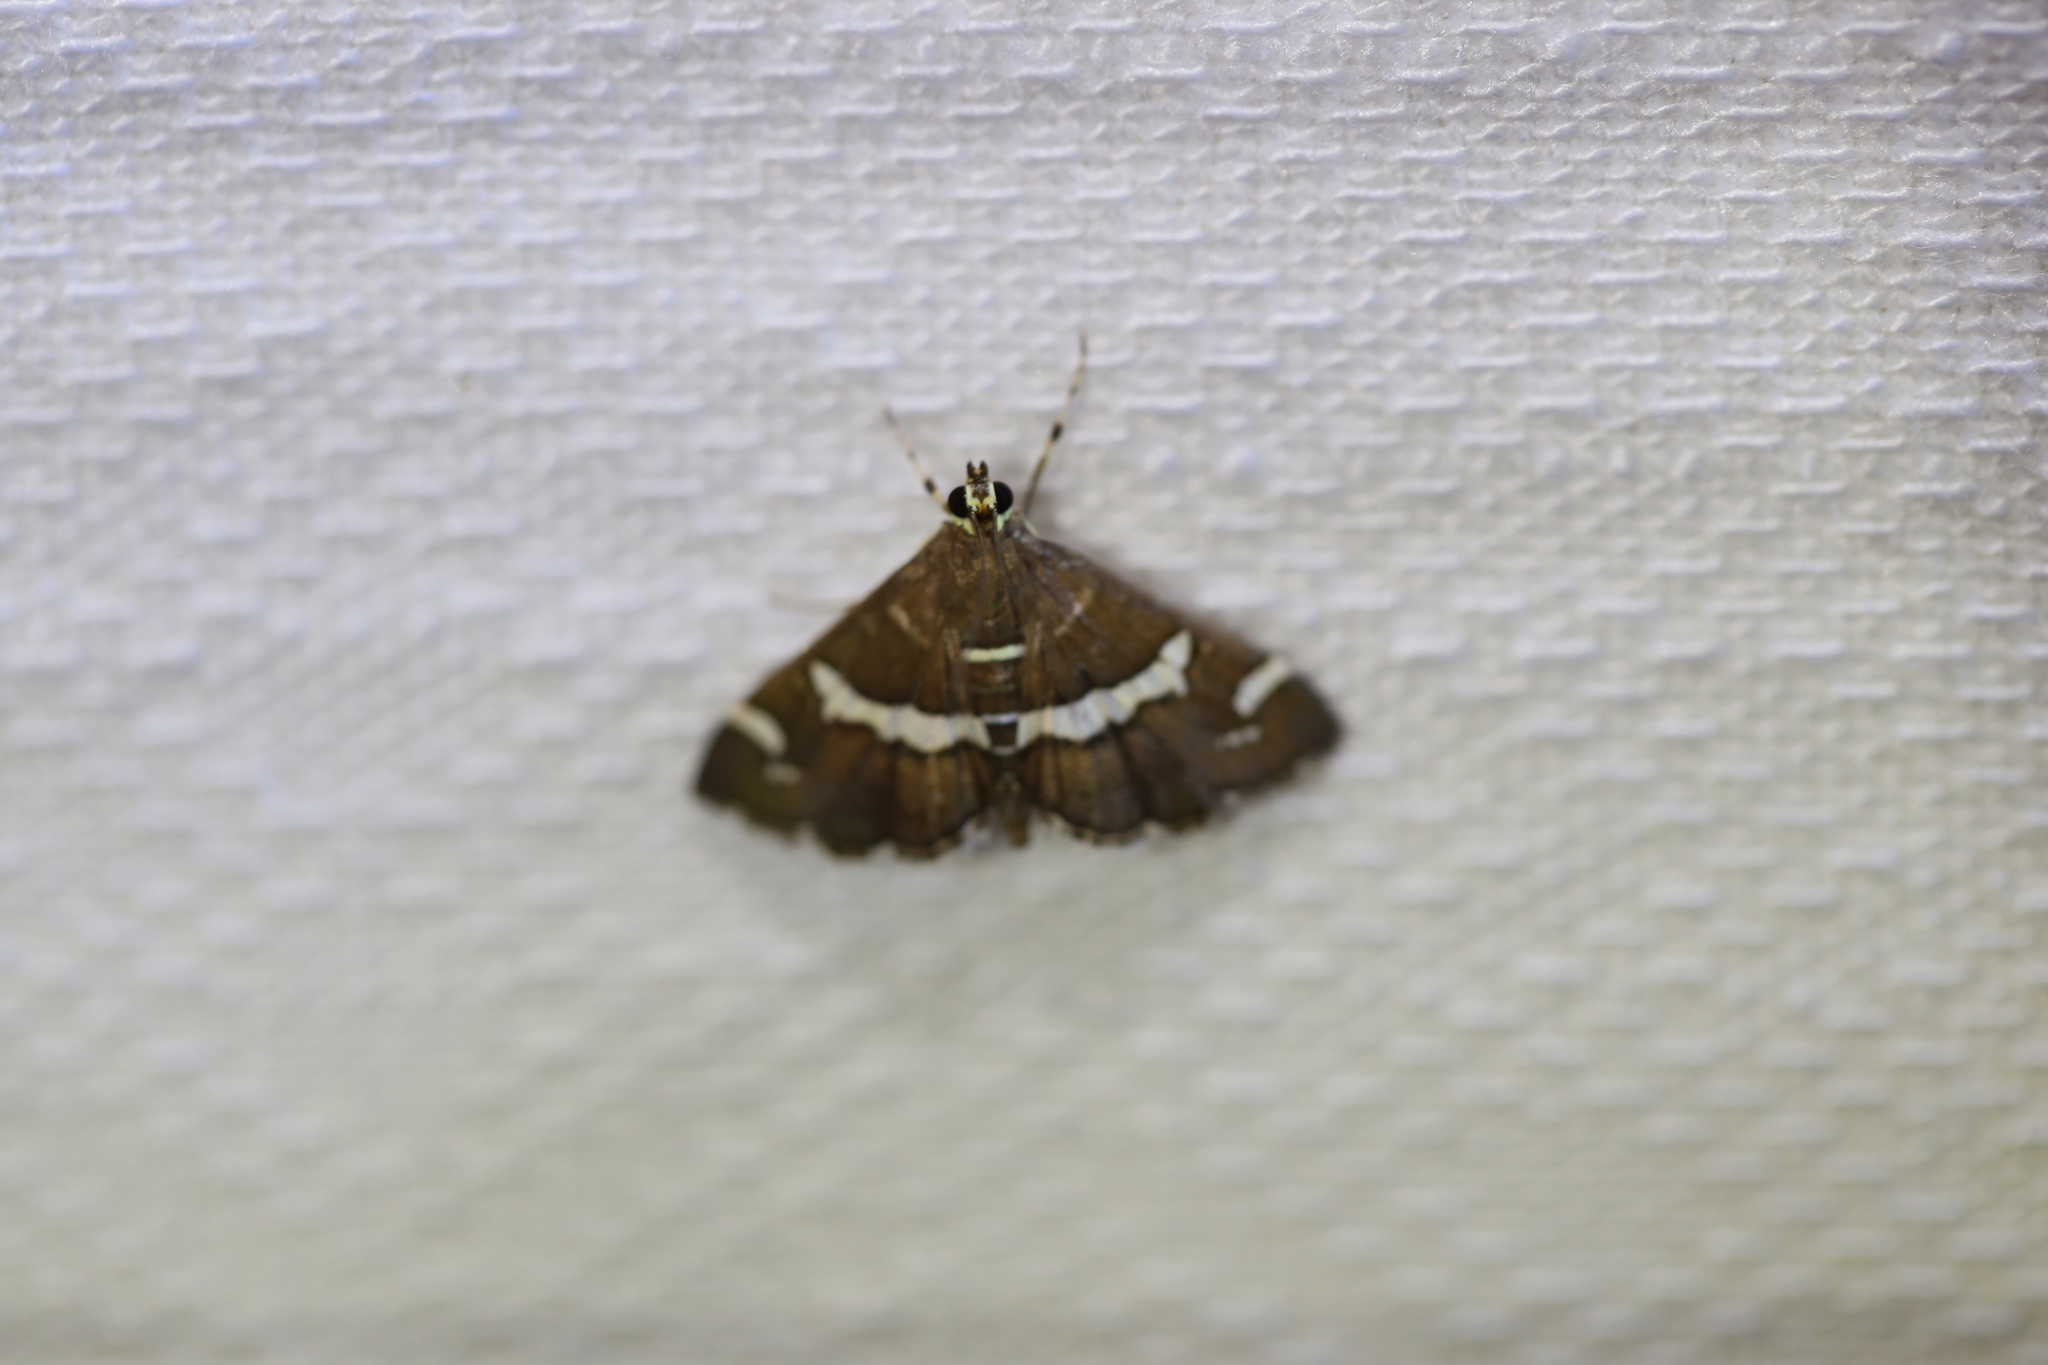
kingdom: Animalia
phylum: Arthropoda
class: Insecta
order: Lepidoptera
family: Crambidae
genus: Spoladea
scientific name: Spoladea recurvalis
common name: Beet webworm moth
